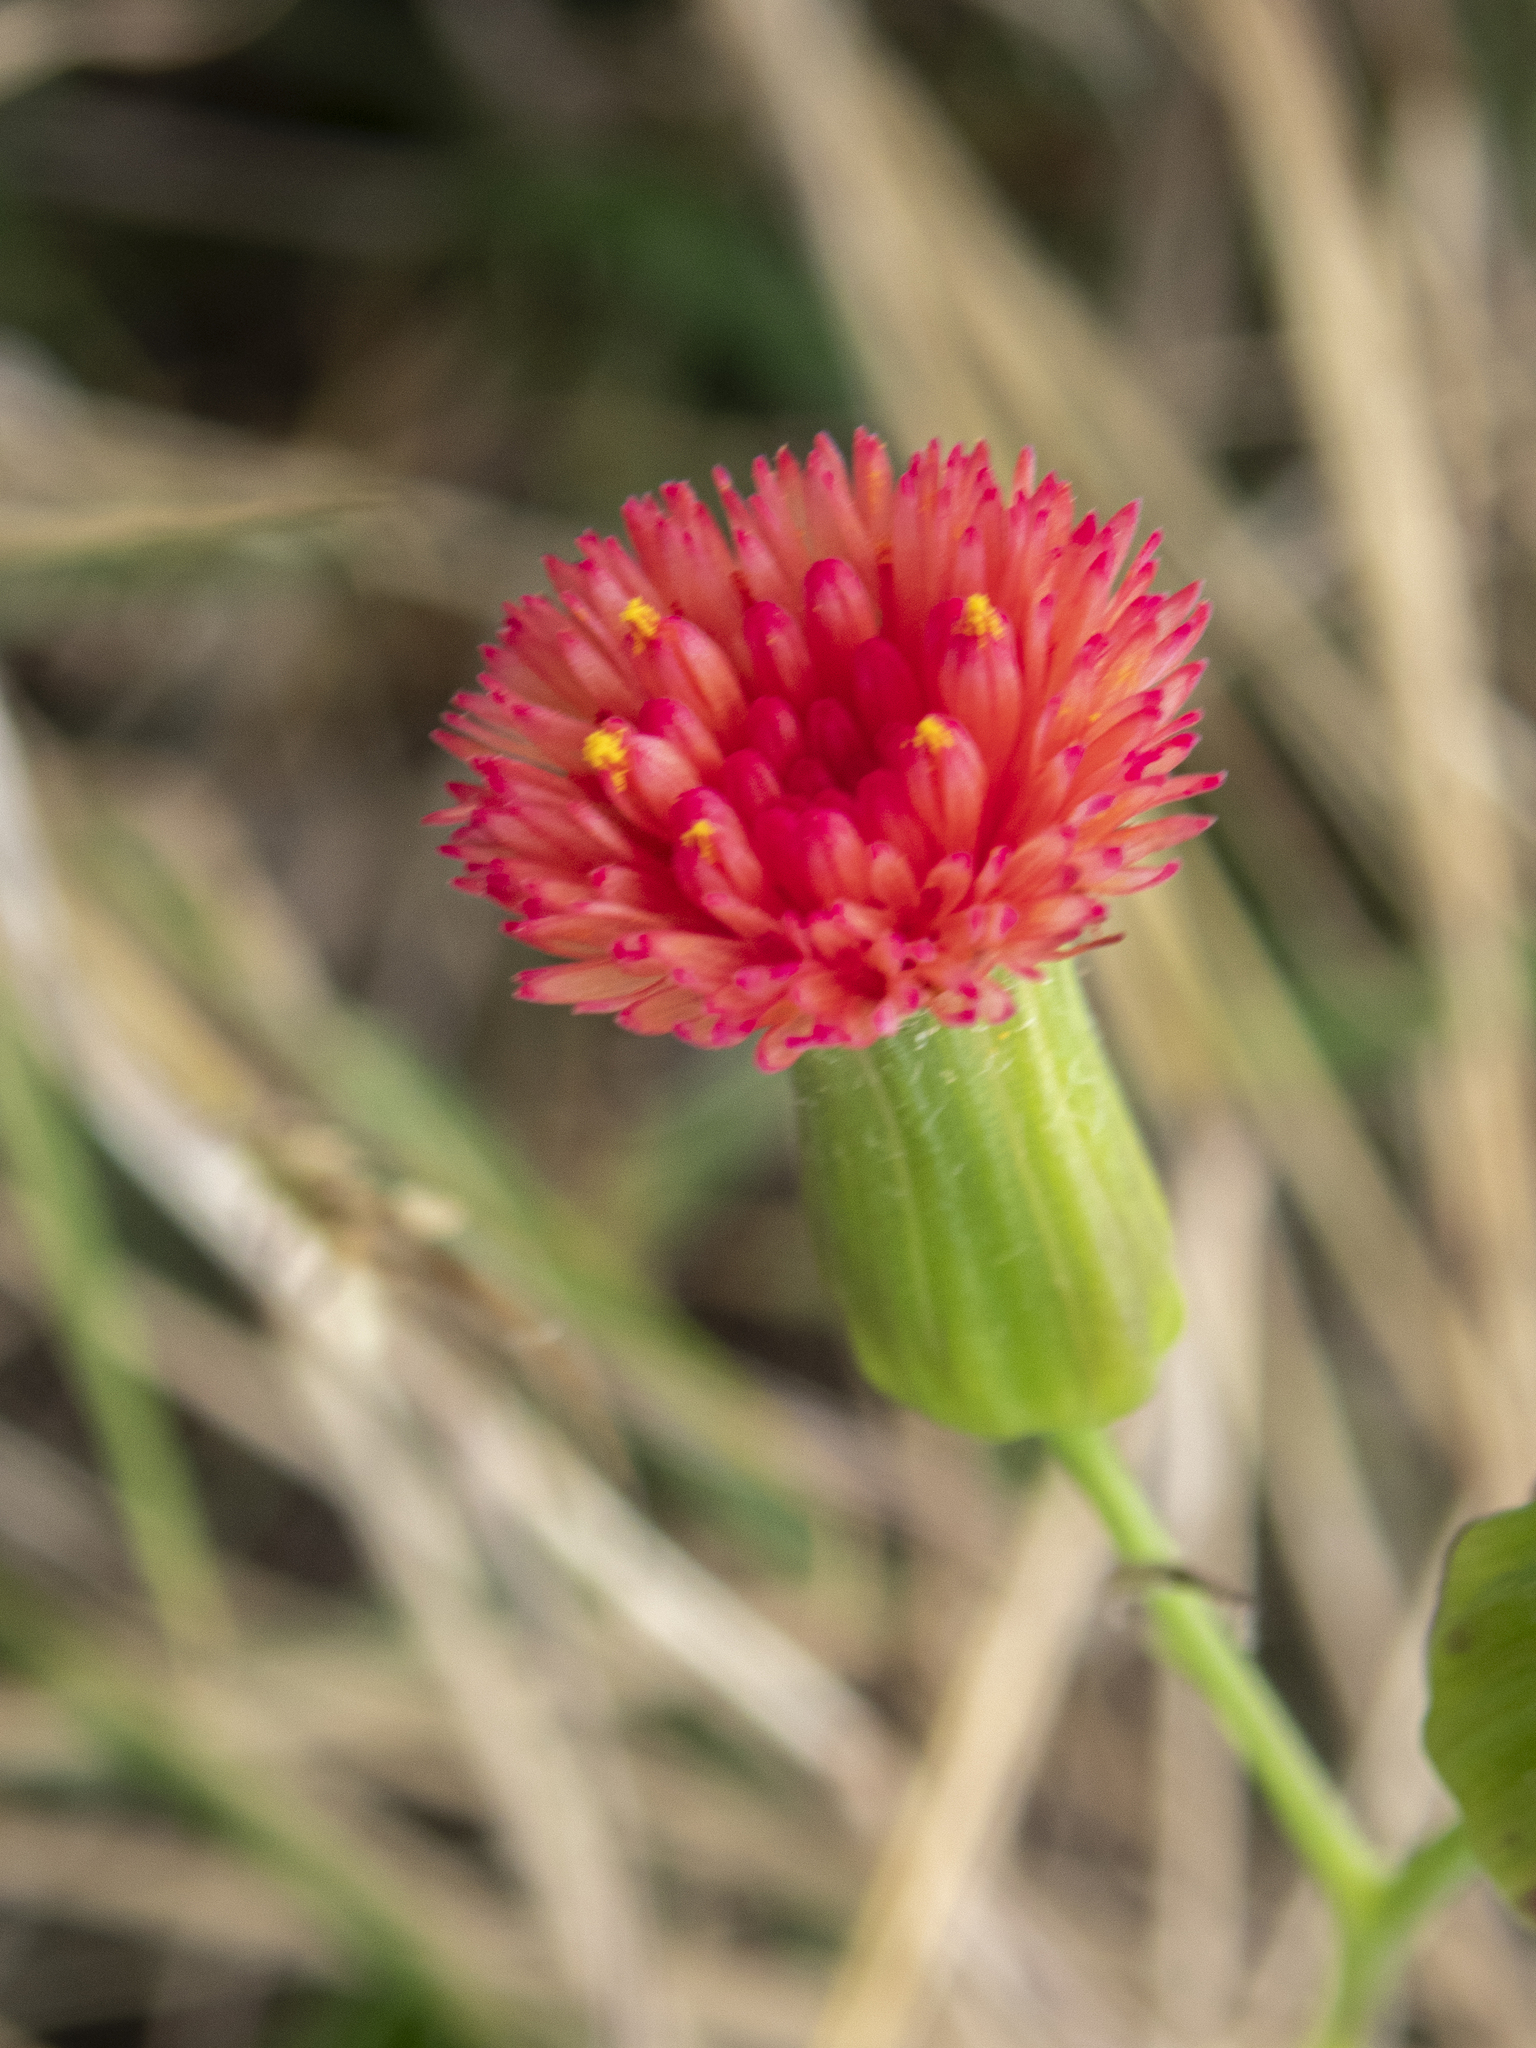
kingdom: Plantae
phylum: Tracheophyta
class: Magnoliopsida
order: Asterales
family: Asteraceae
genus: Emilia
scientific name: Emilia fosbergii
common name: Florida tasselflower
